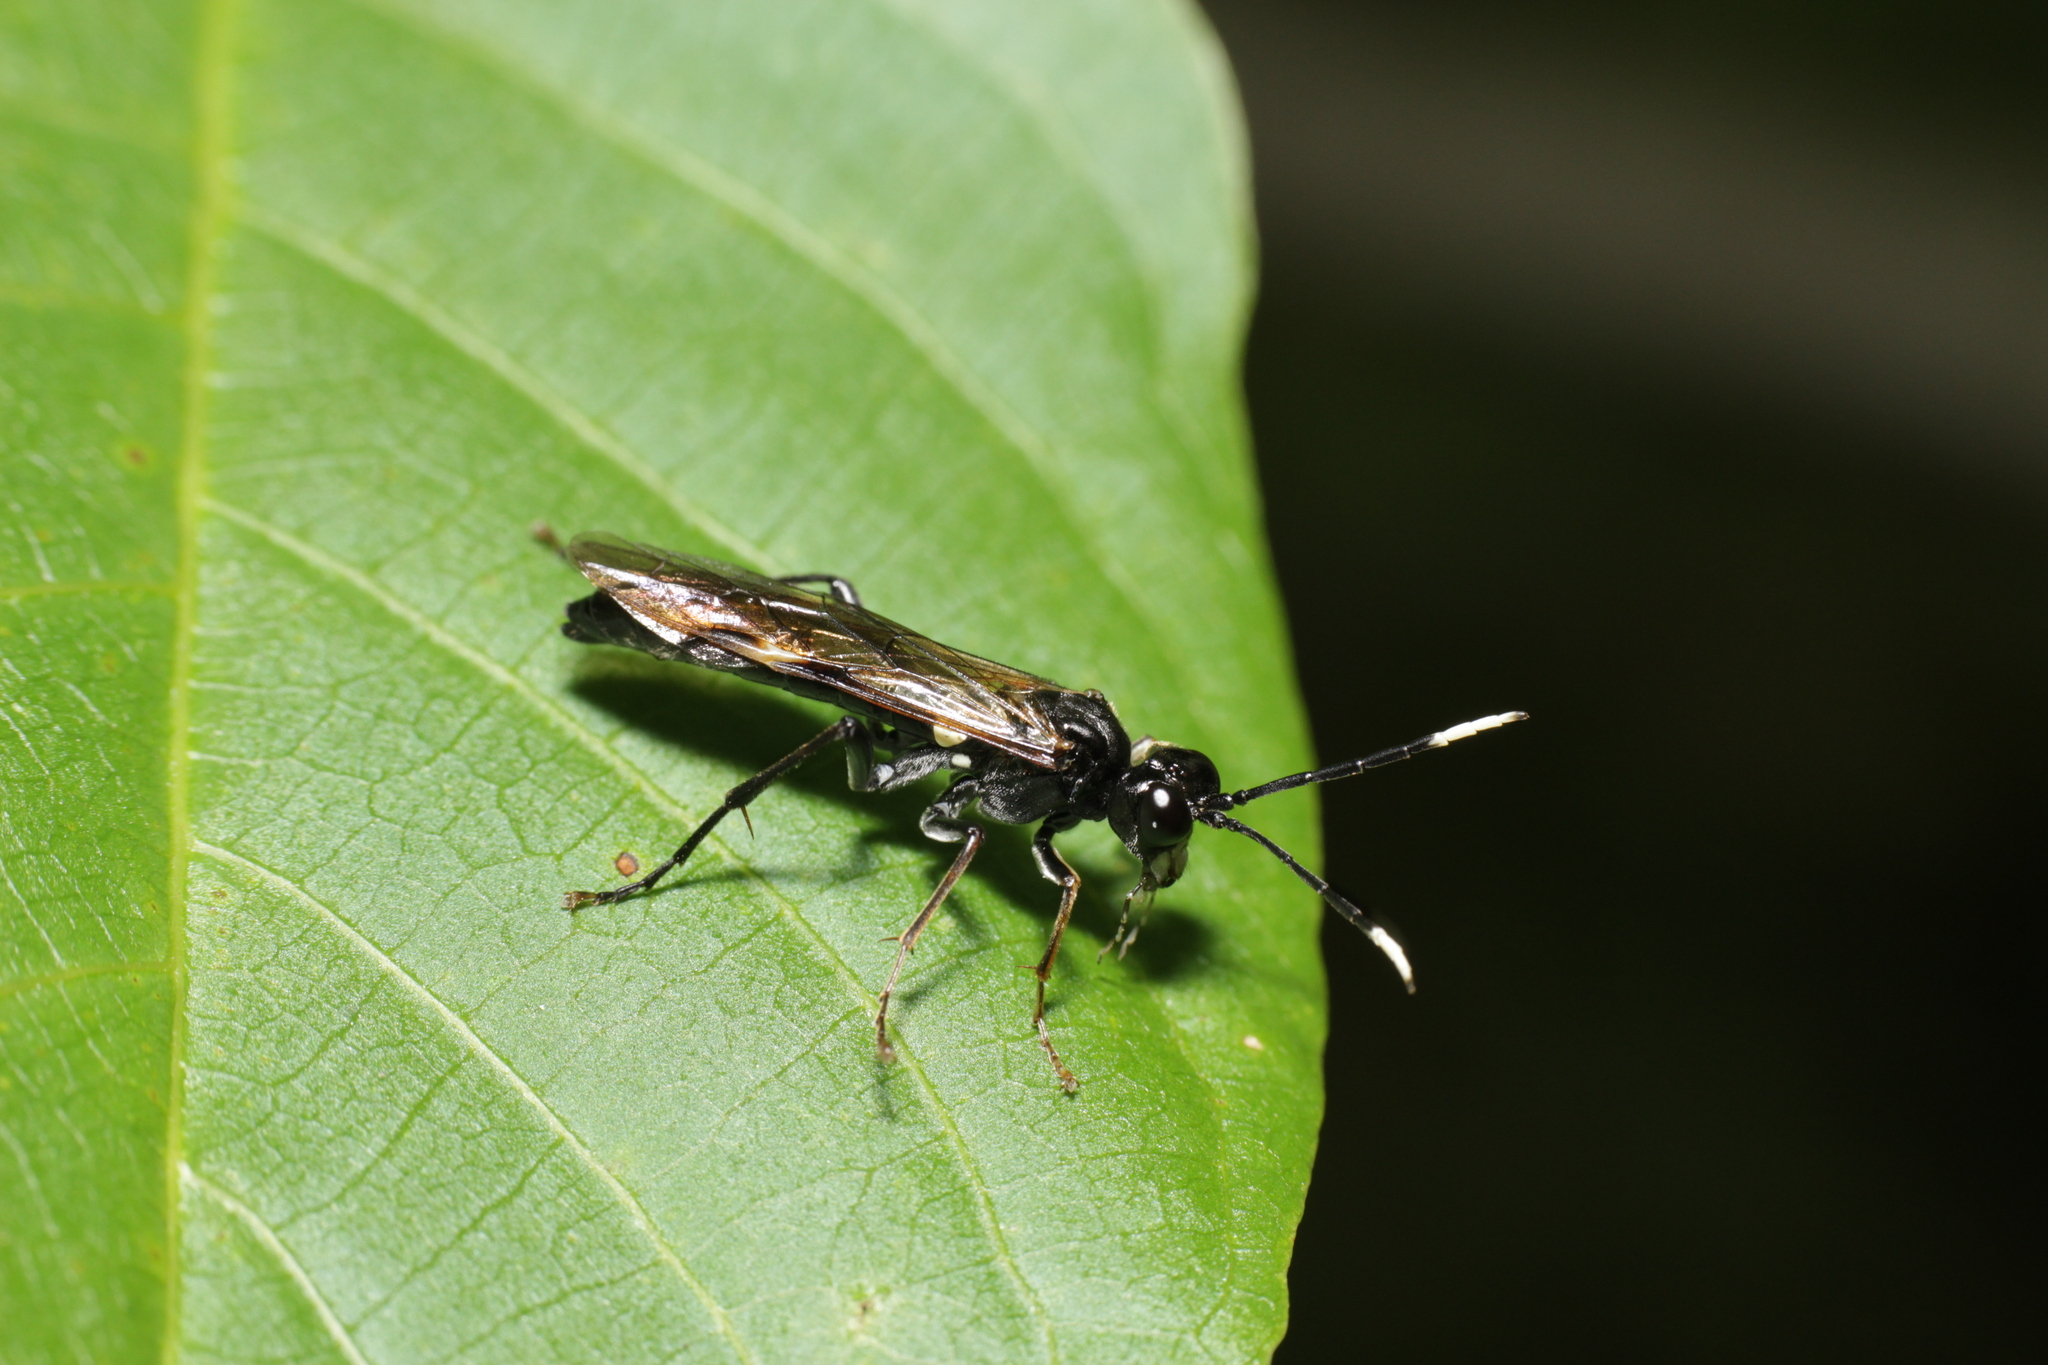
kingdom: Animalia
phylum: Arthropoda
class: Insecta
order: Hymenoptera
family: Tenthredinidae
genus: Tenthredo
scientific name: Tenthredo livida
